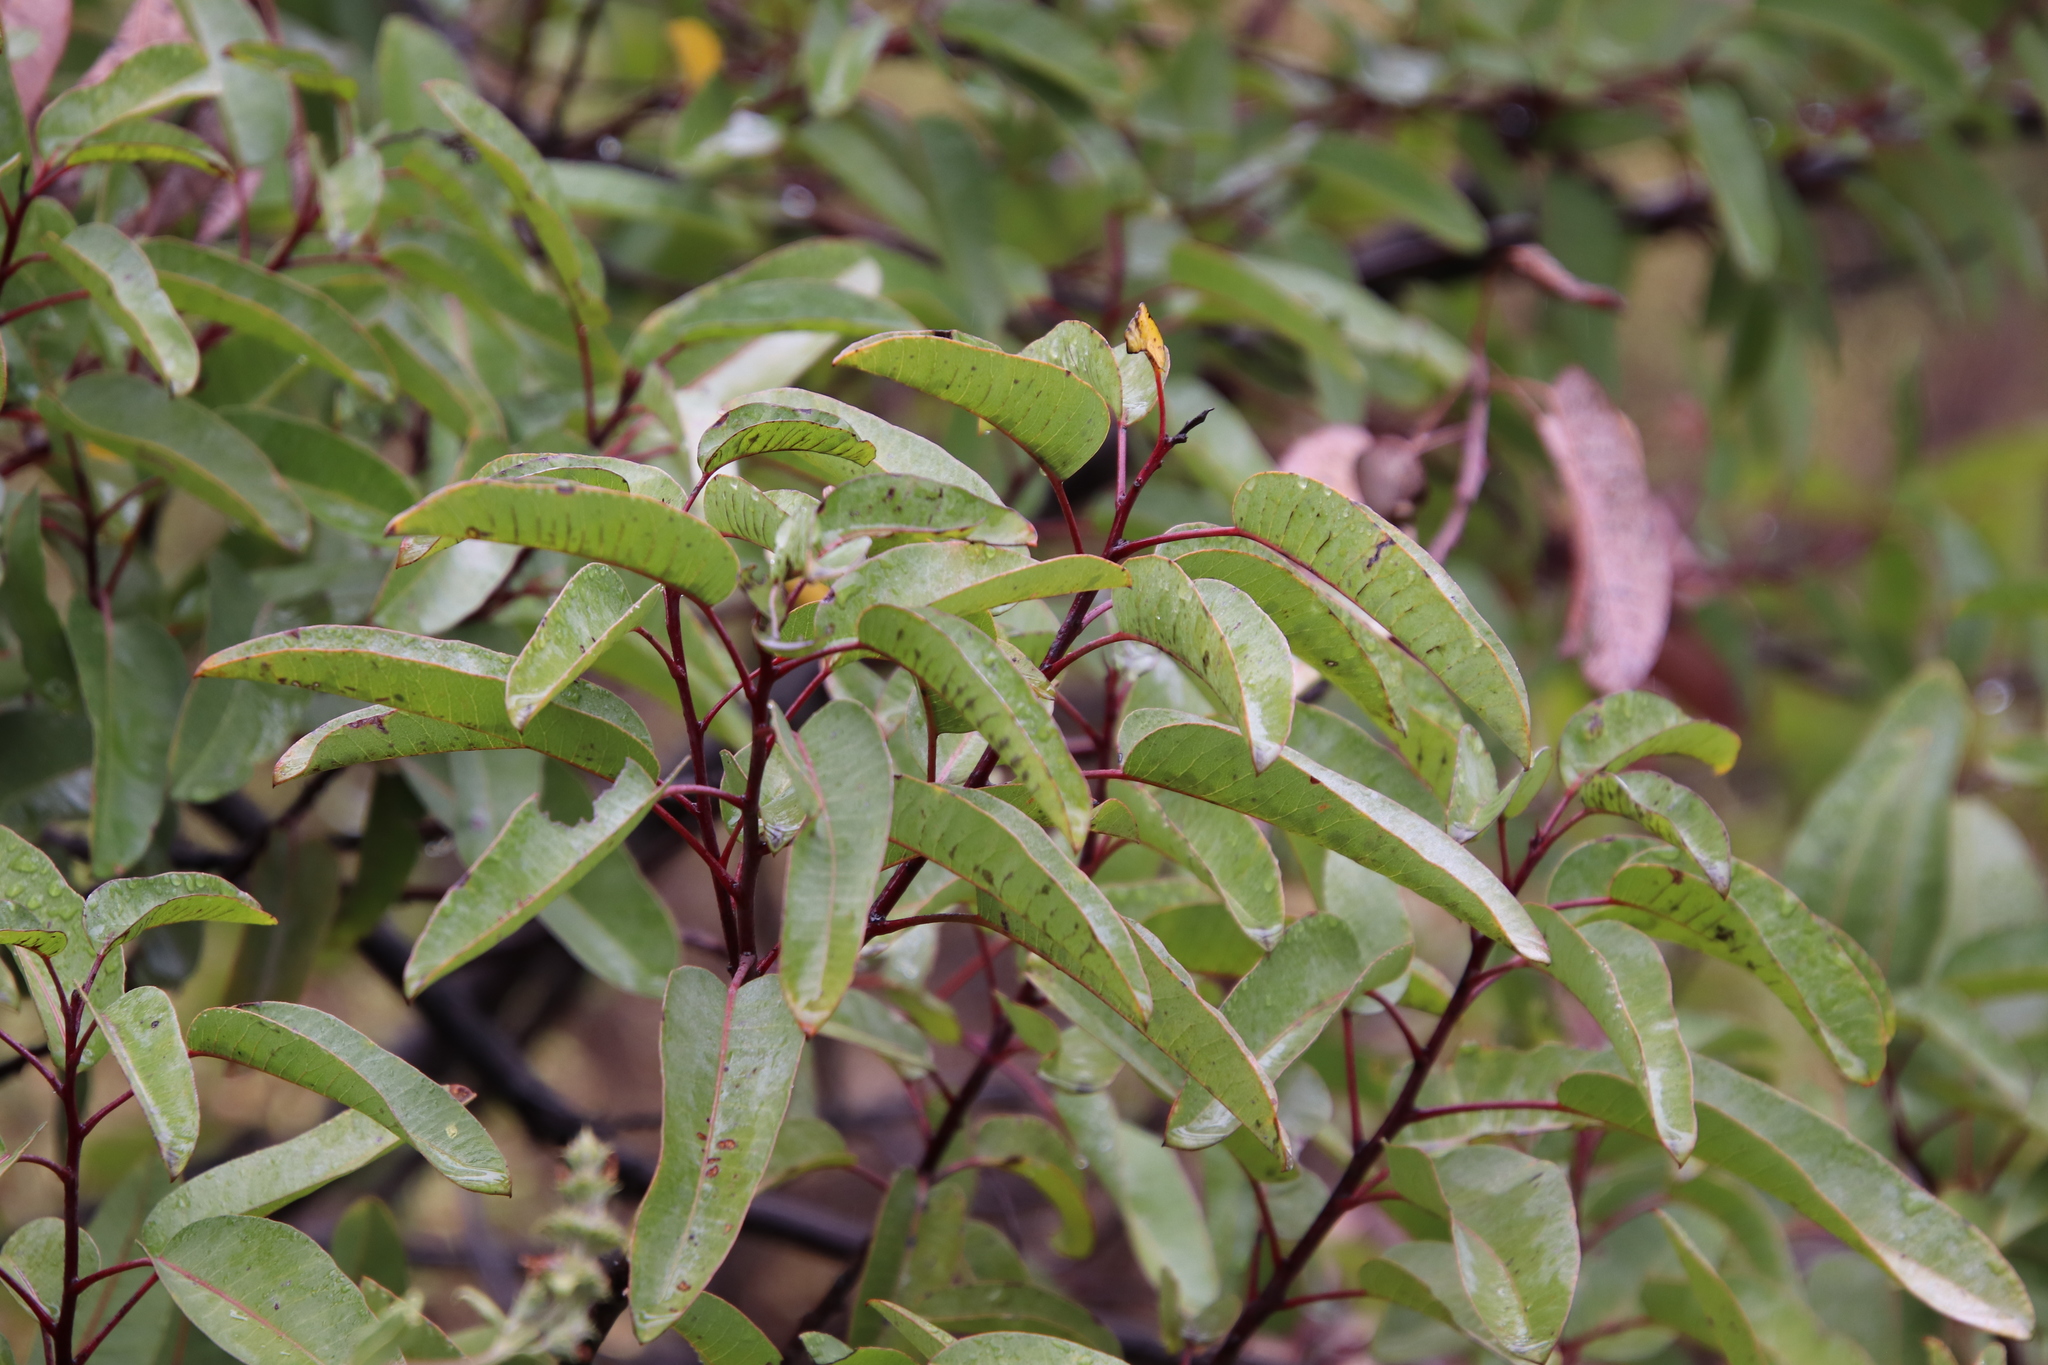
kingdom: Plantae
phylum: Tracheophyta
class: Magnoliopsida
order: Sapindales
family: Anacardiaceae
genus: Malosma
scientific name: Malosma laurina
